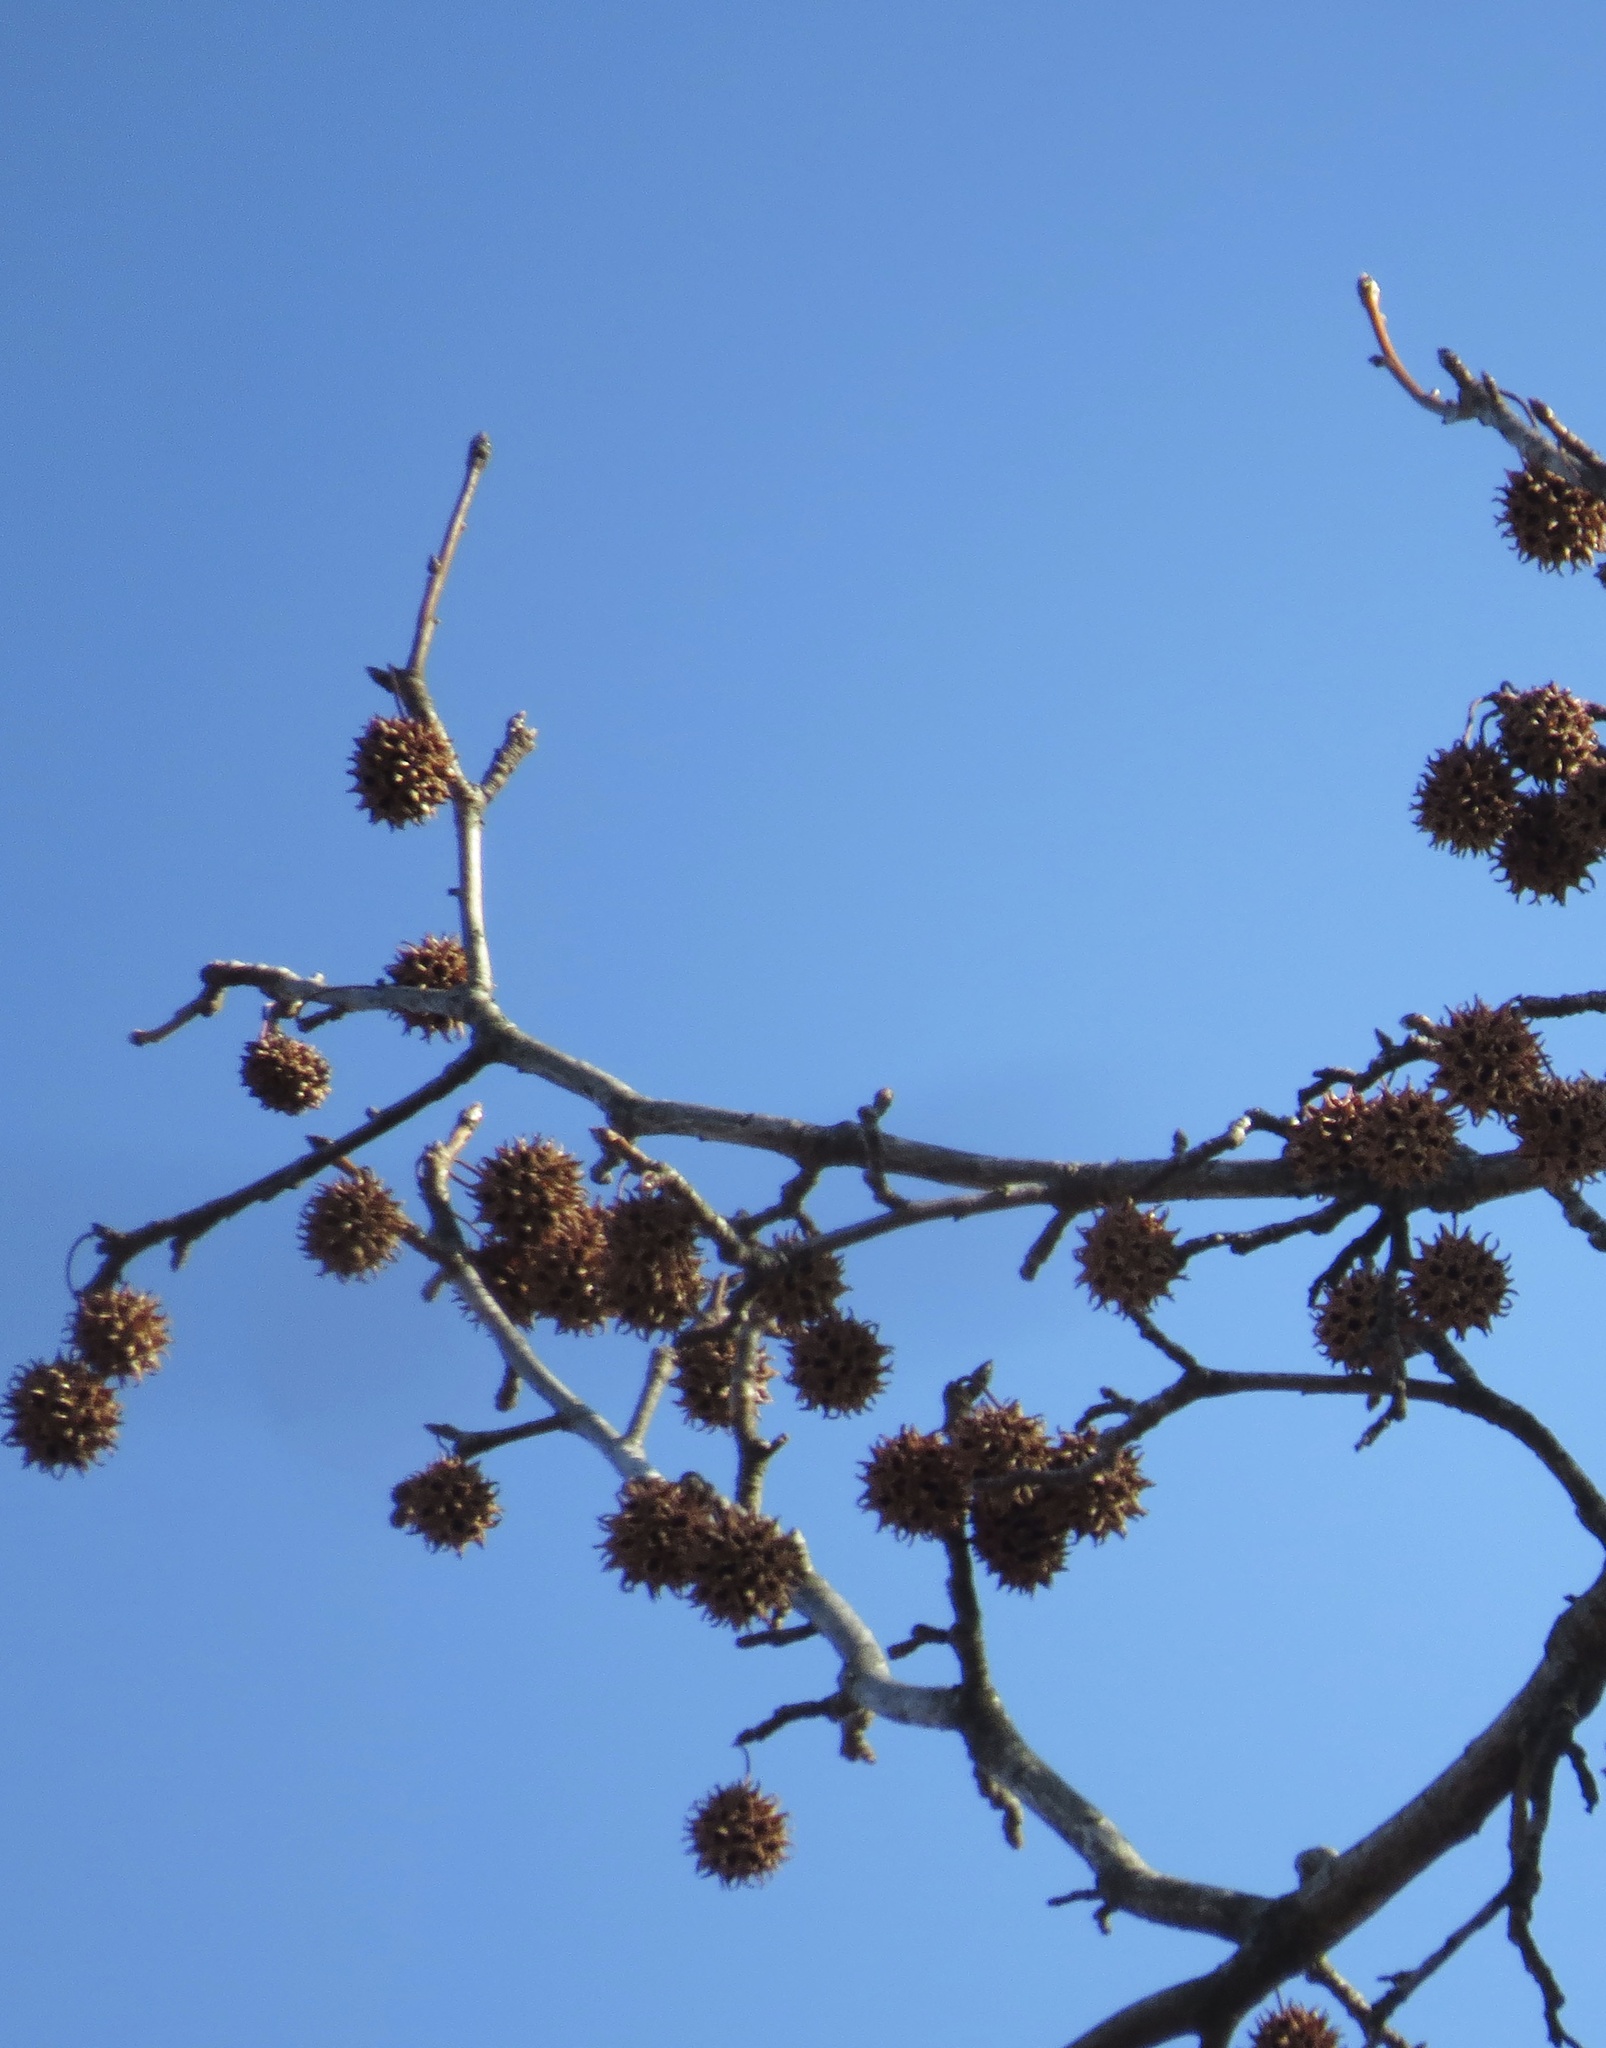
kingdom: Plantae
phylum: Tracheophyta
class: Magnoliopsida
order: Saxifragales
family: Altingiaceae
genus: Liquidambar
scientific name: Liquidambar styraciflua
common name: Sweet gum
